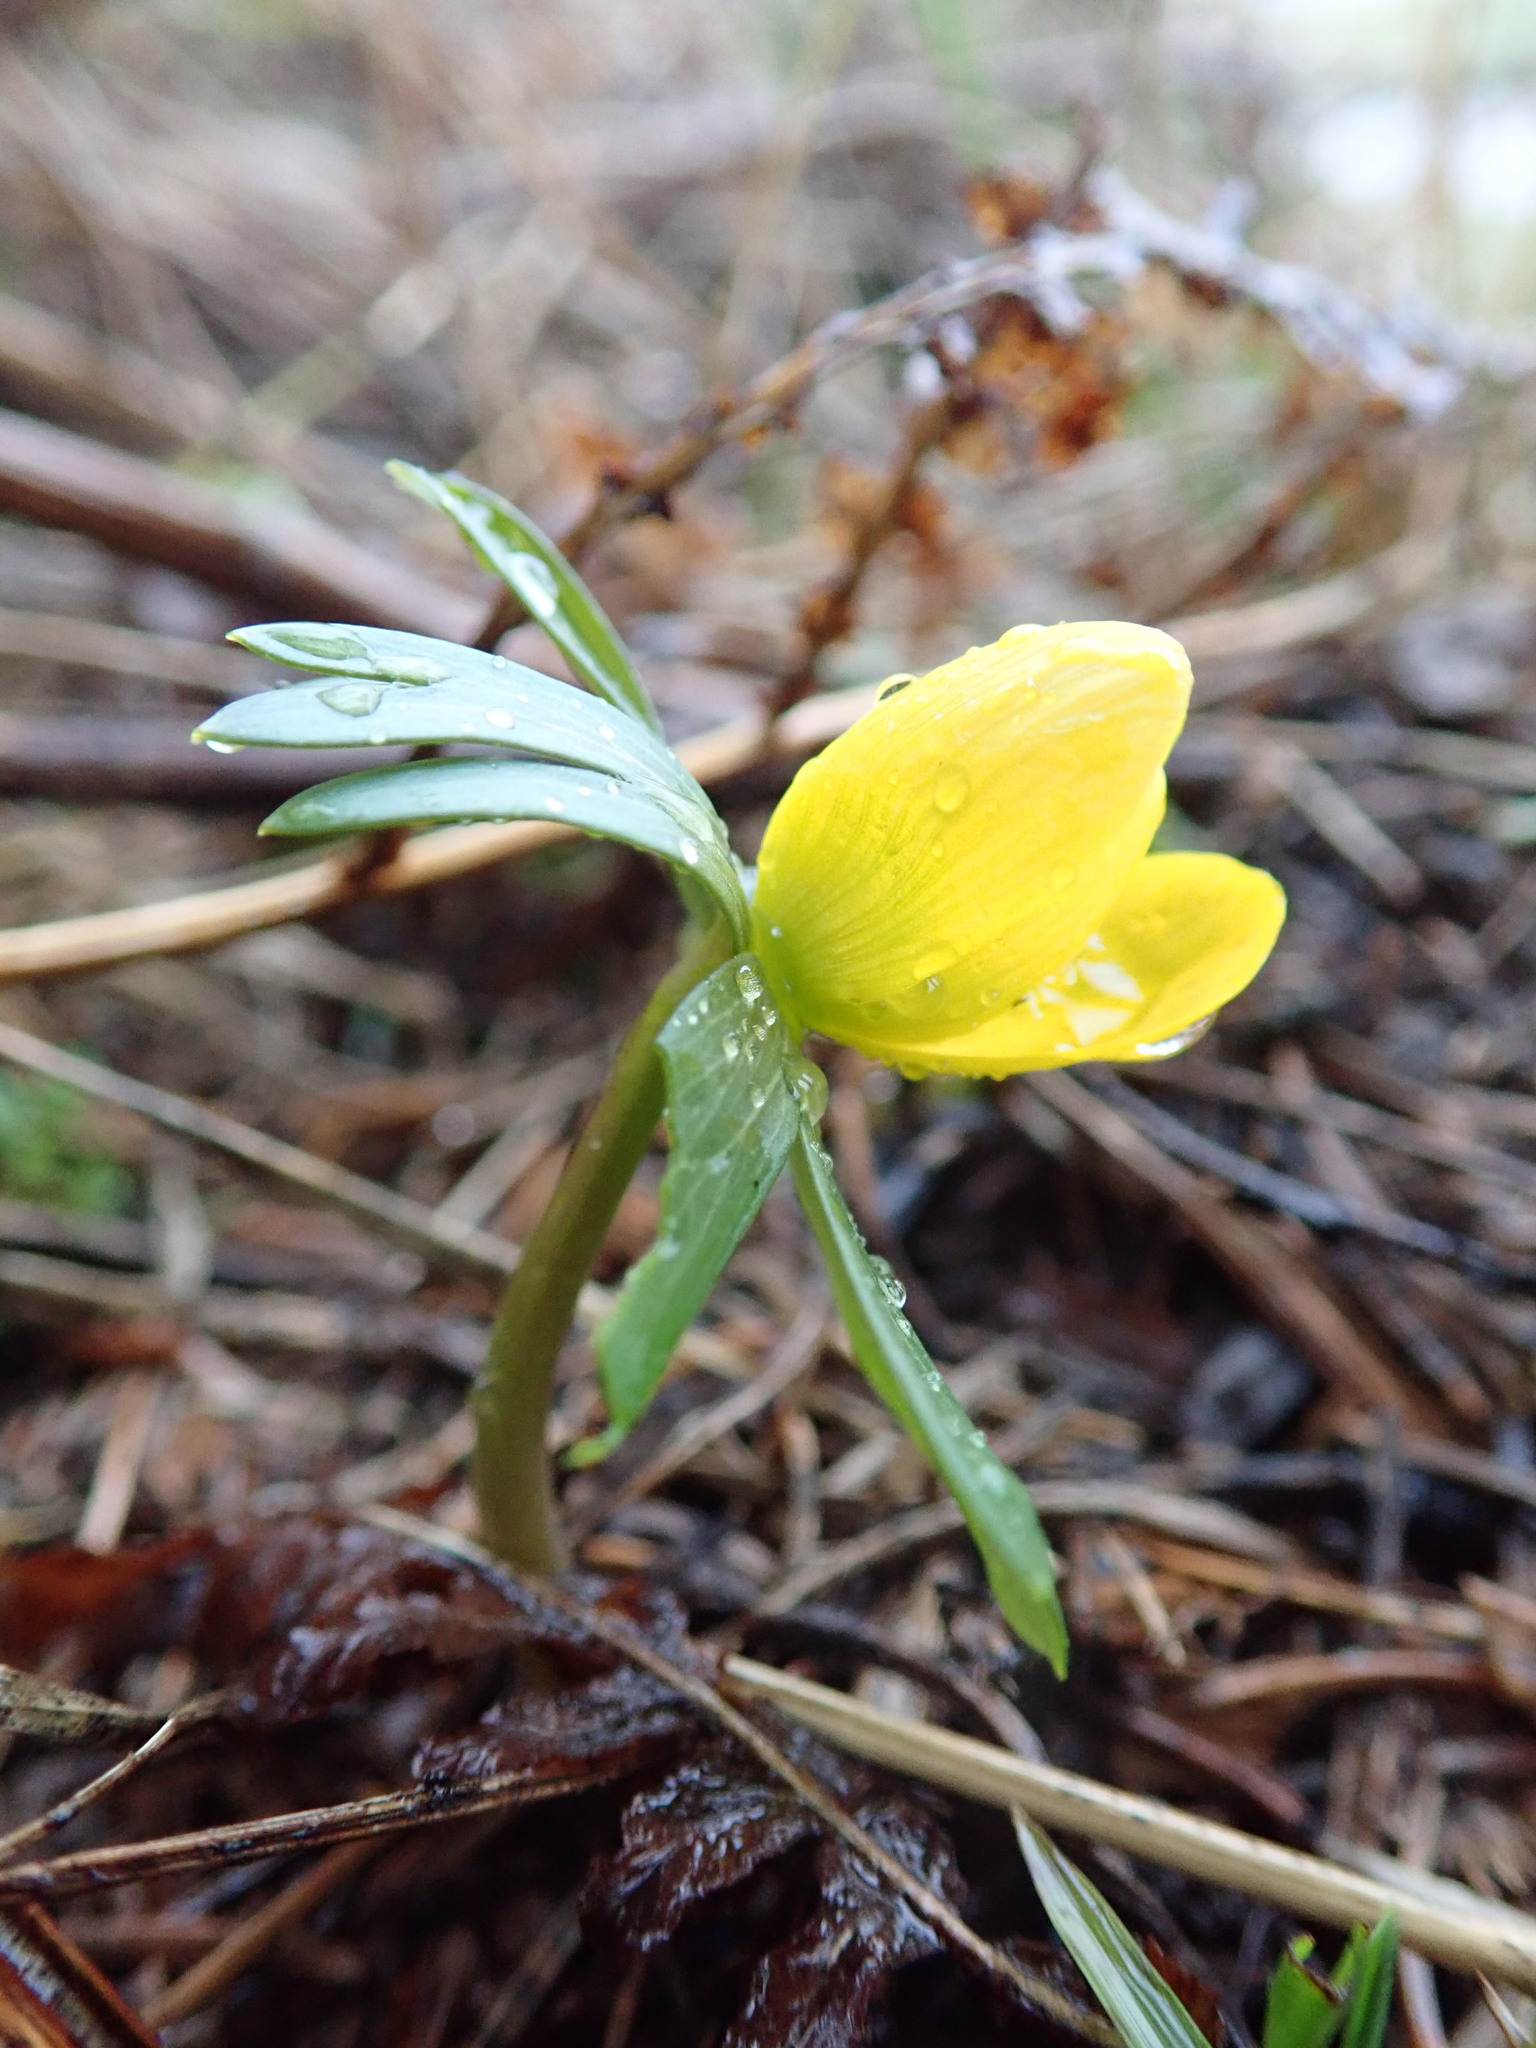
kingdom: Plantae
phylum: Tracheophyta
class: Magnoliopsida
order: Ranunculales
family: Ranunculaceae
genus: Eranthis
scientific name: Eranthis hyemalis
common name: Winter aconite
